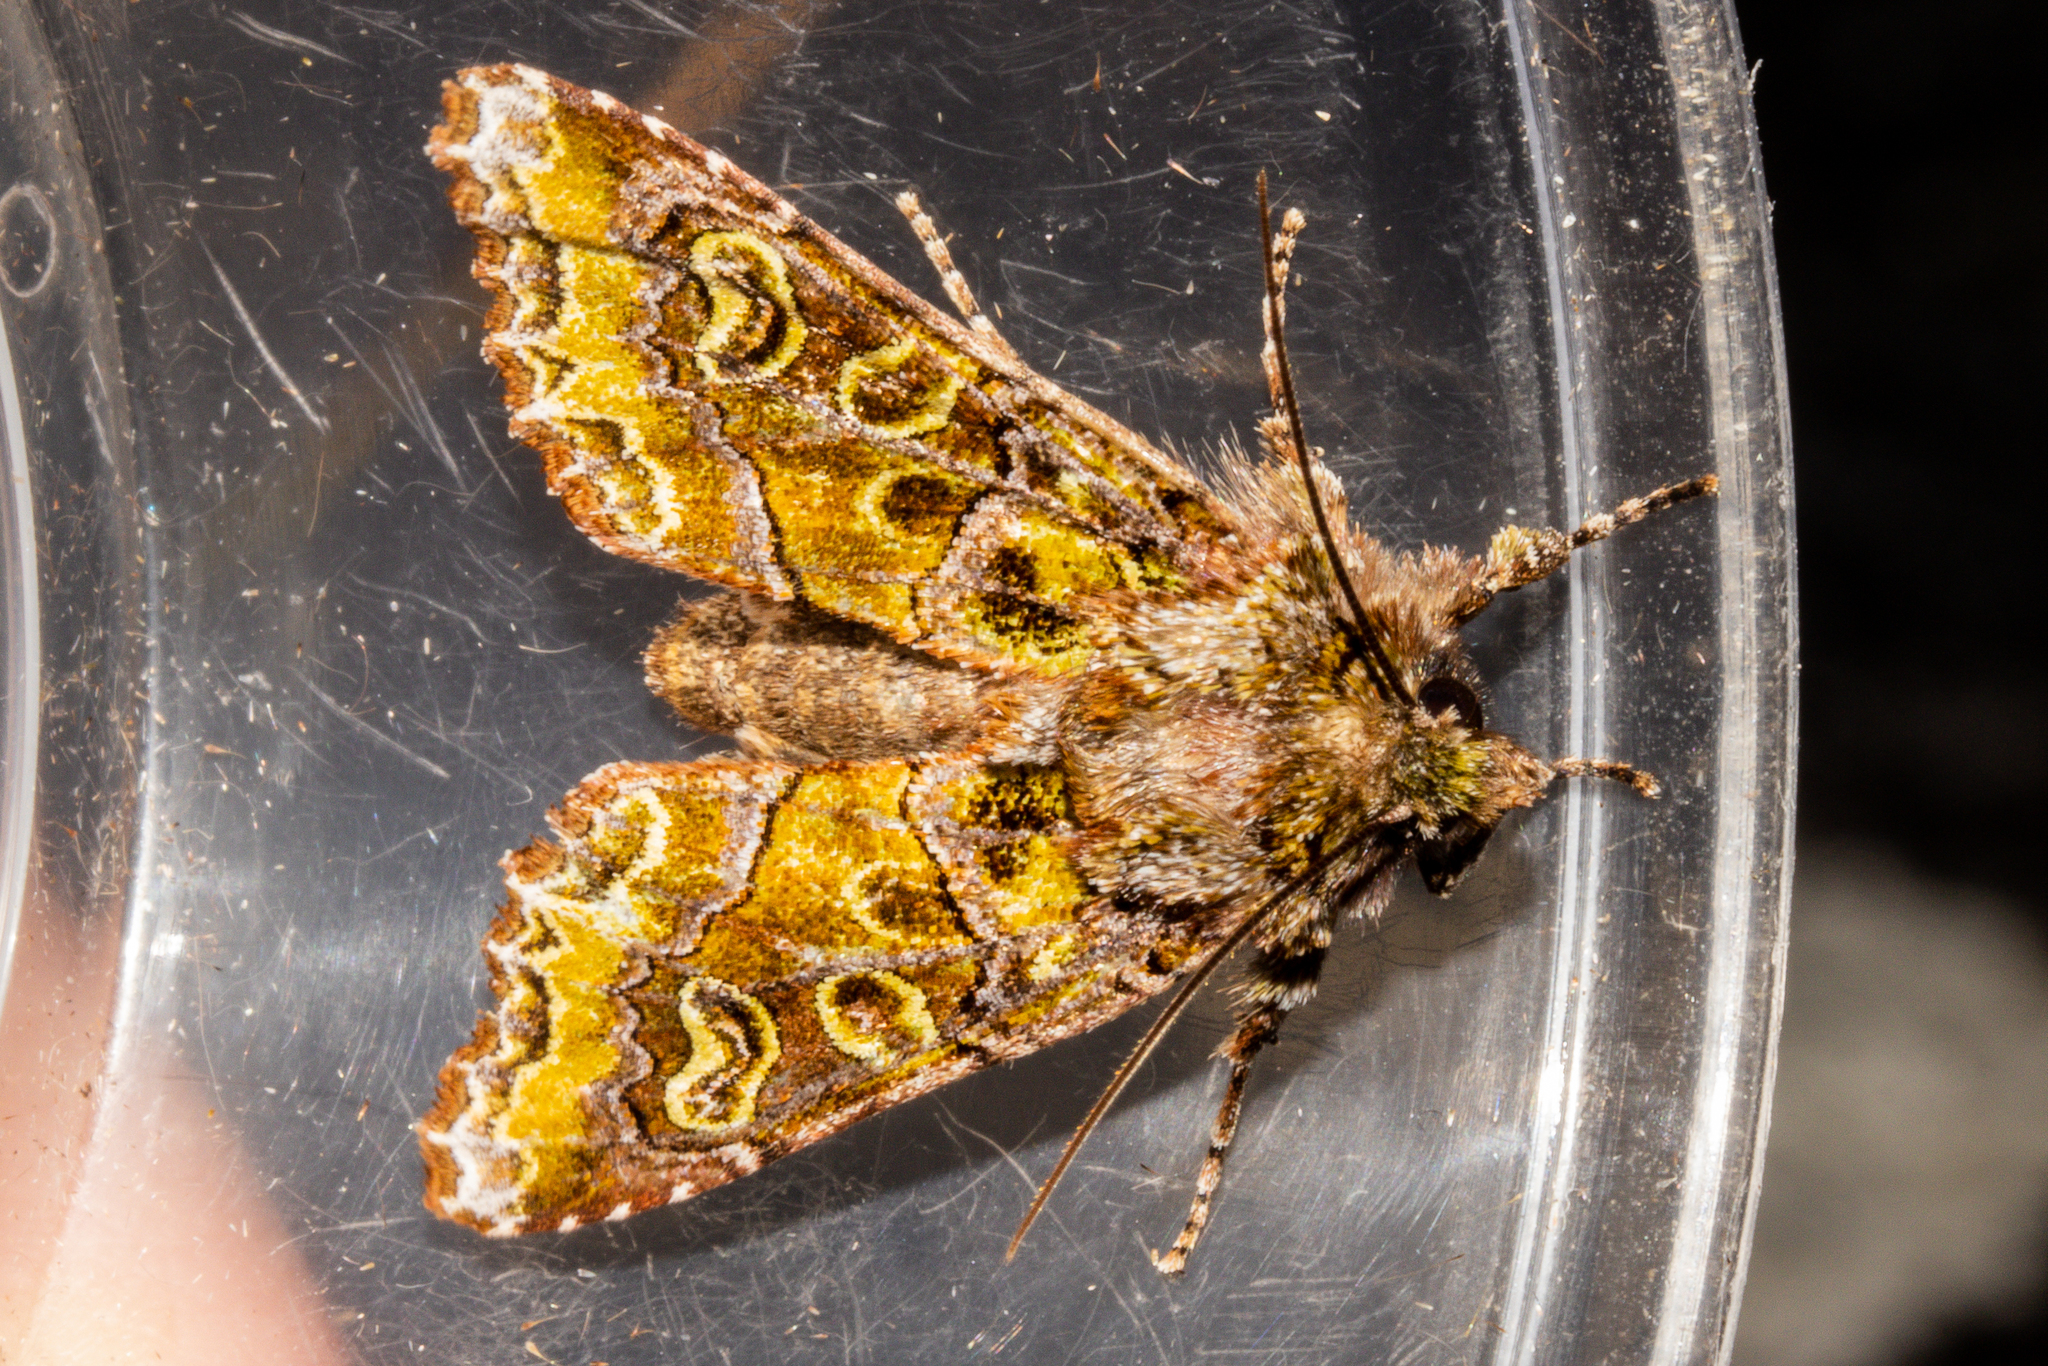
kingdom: Animalia
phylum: Arthropoda
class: Insecta
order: Lepidoptera
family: Noctuidae
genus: Ichneutica
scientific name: Ichneutica chlorodonta
